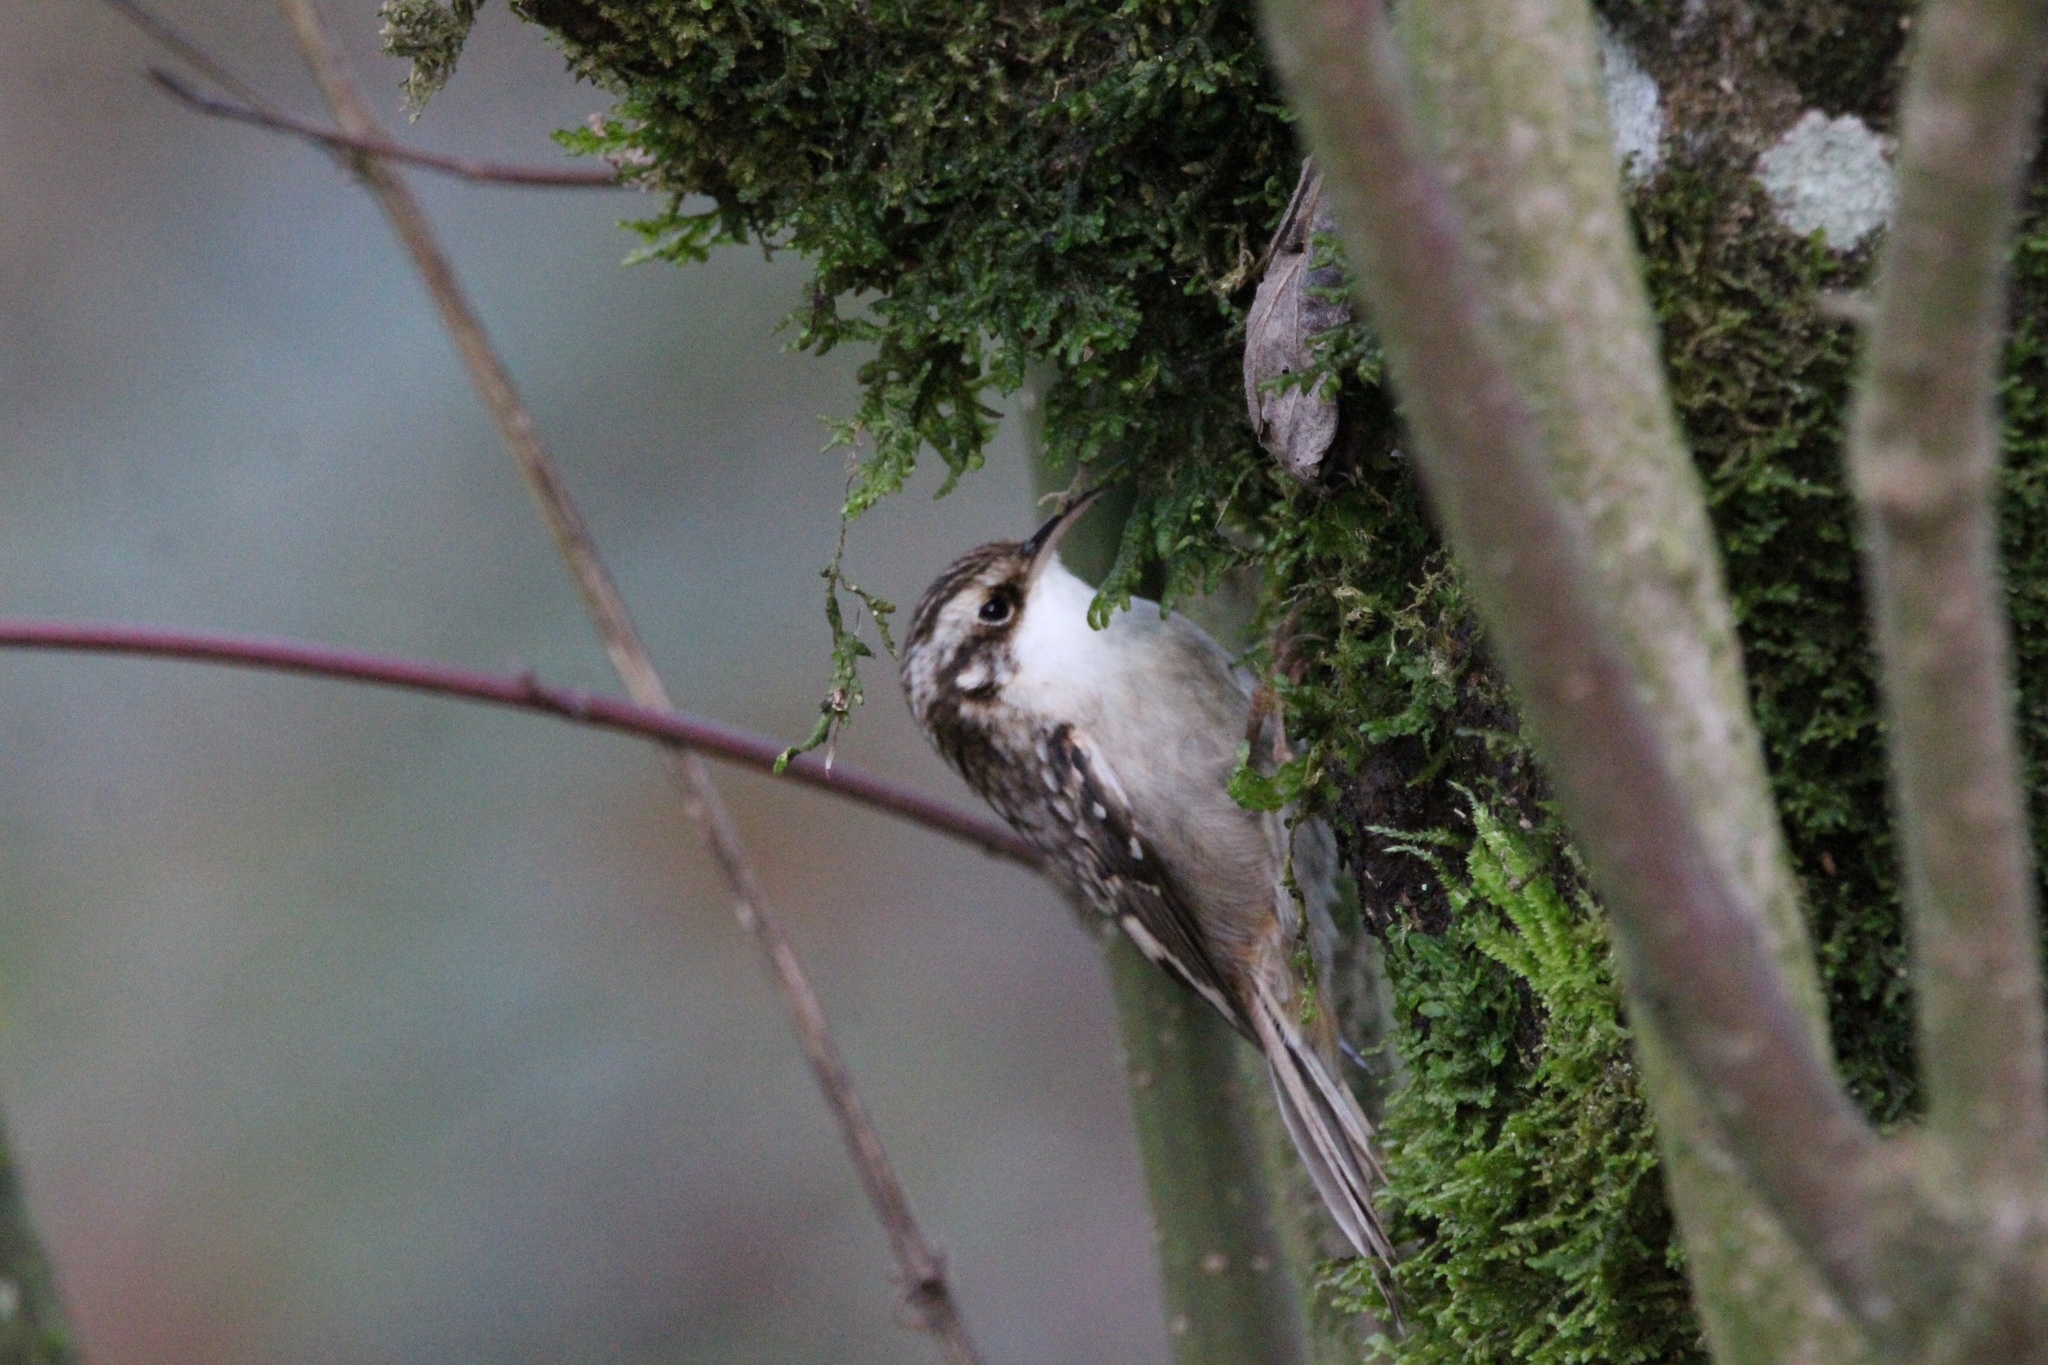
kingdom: Animalia
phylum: Chordata
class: Aves
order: Passeriformes
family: Certhiidae
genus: Certhia
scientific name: Certhia americana
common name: Brown creeper
